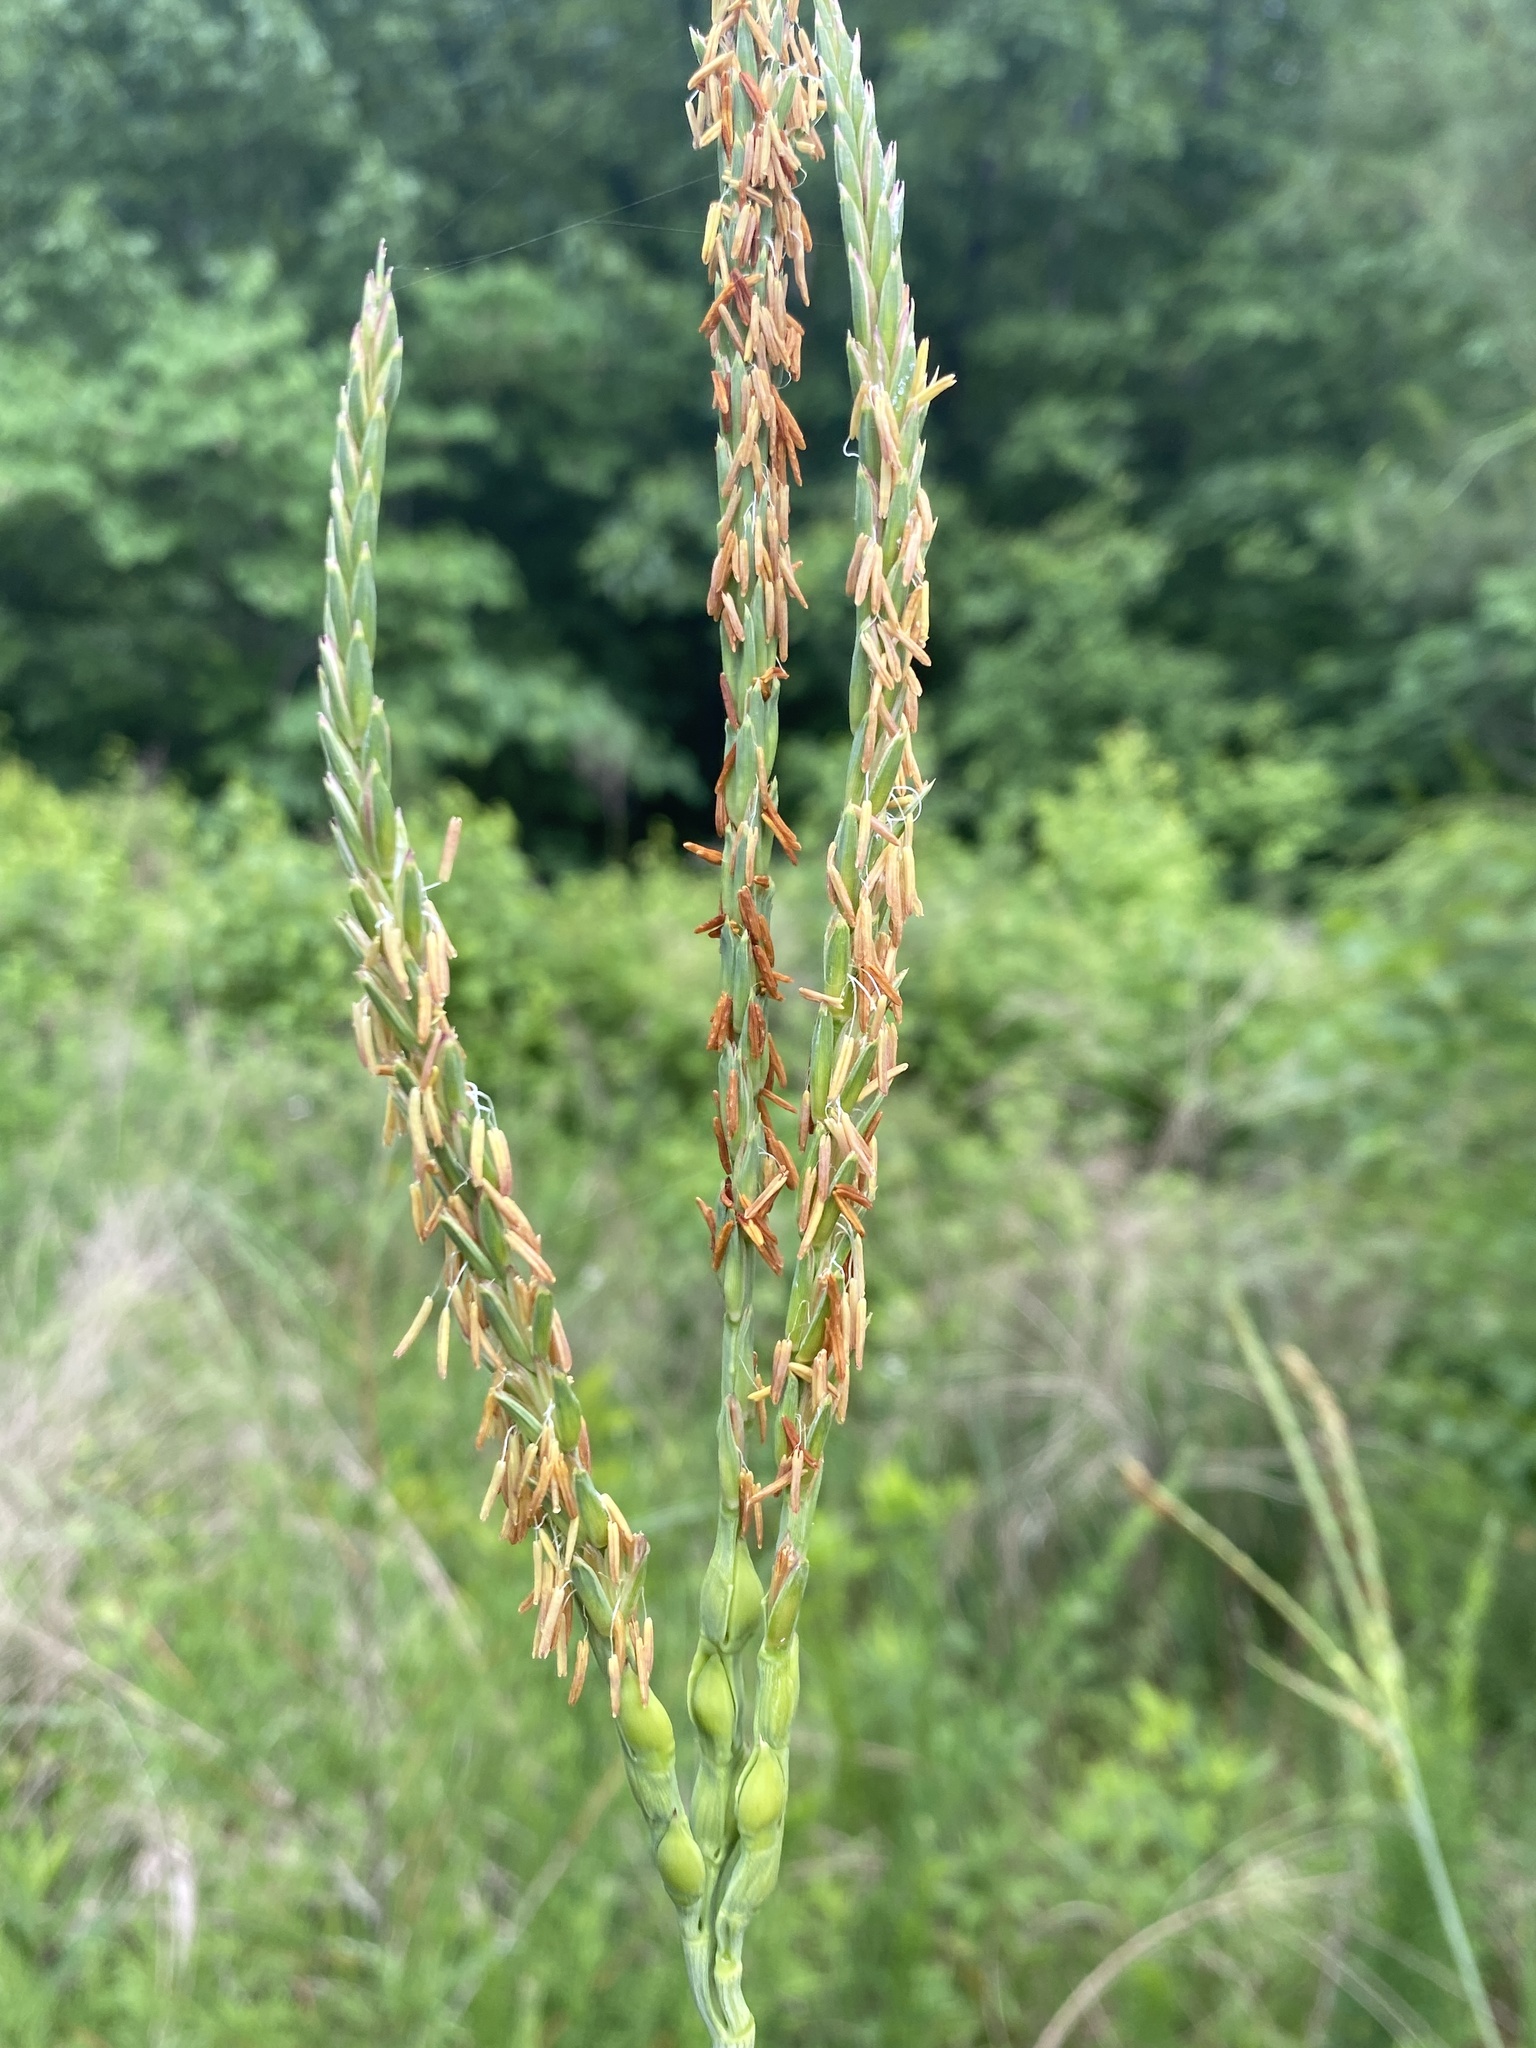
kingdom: Plantae
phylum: Tracheophyta
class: Liliopsida
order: Poales
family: Poaceae
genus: Tripsacum
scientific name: Tripsacum dactyloides
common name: Buffalo-grass
